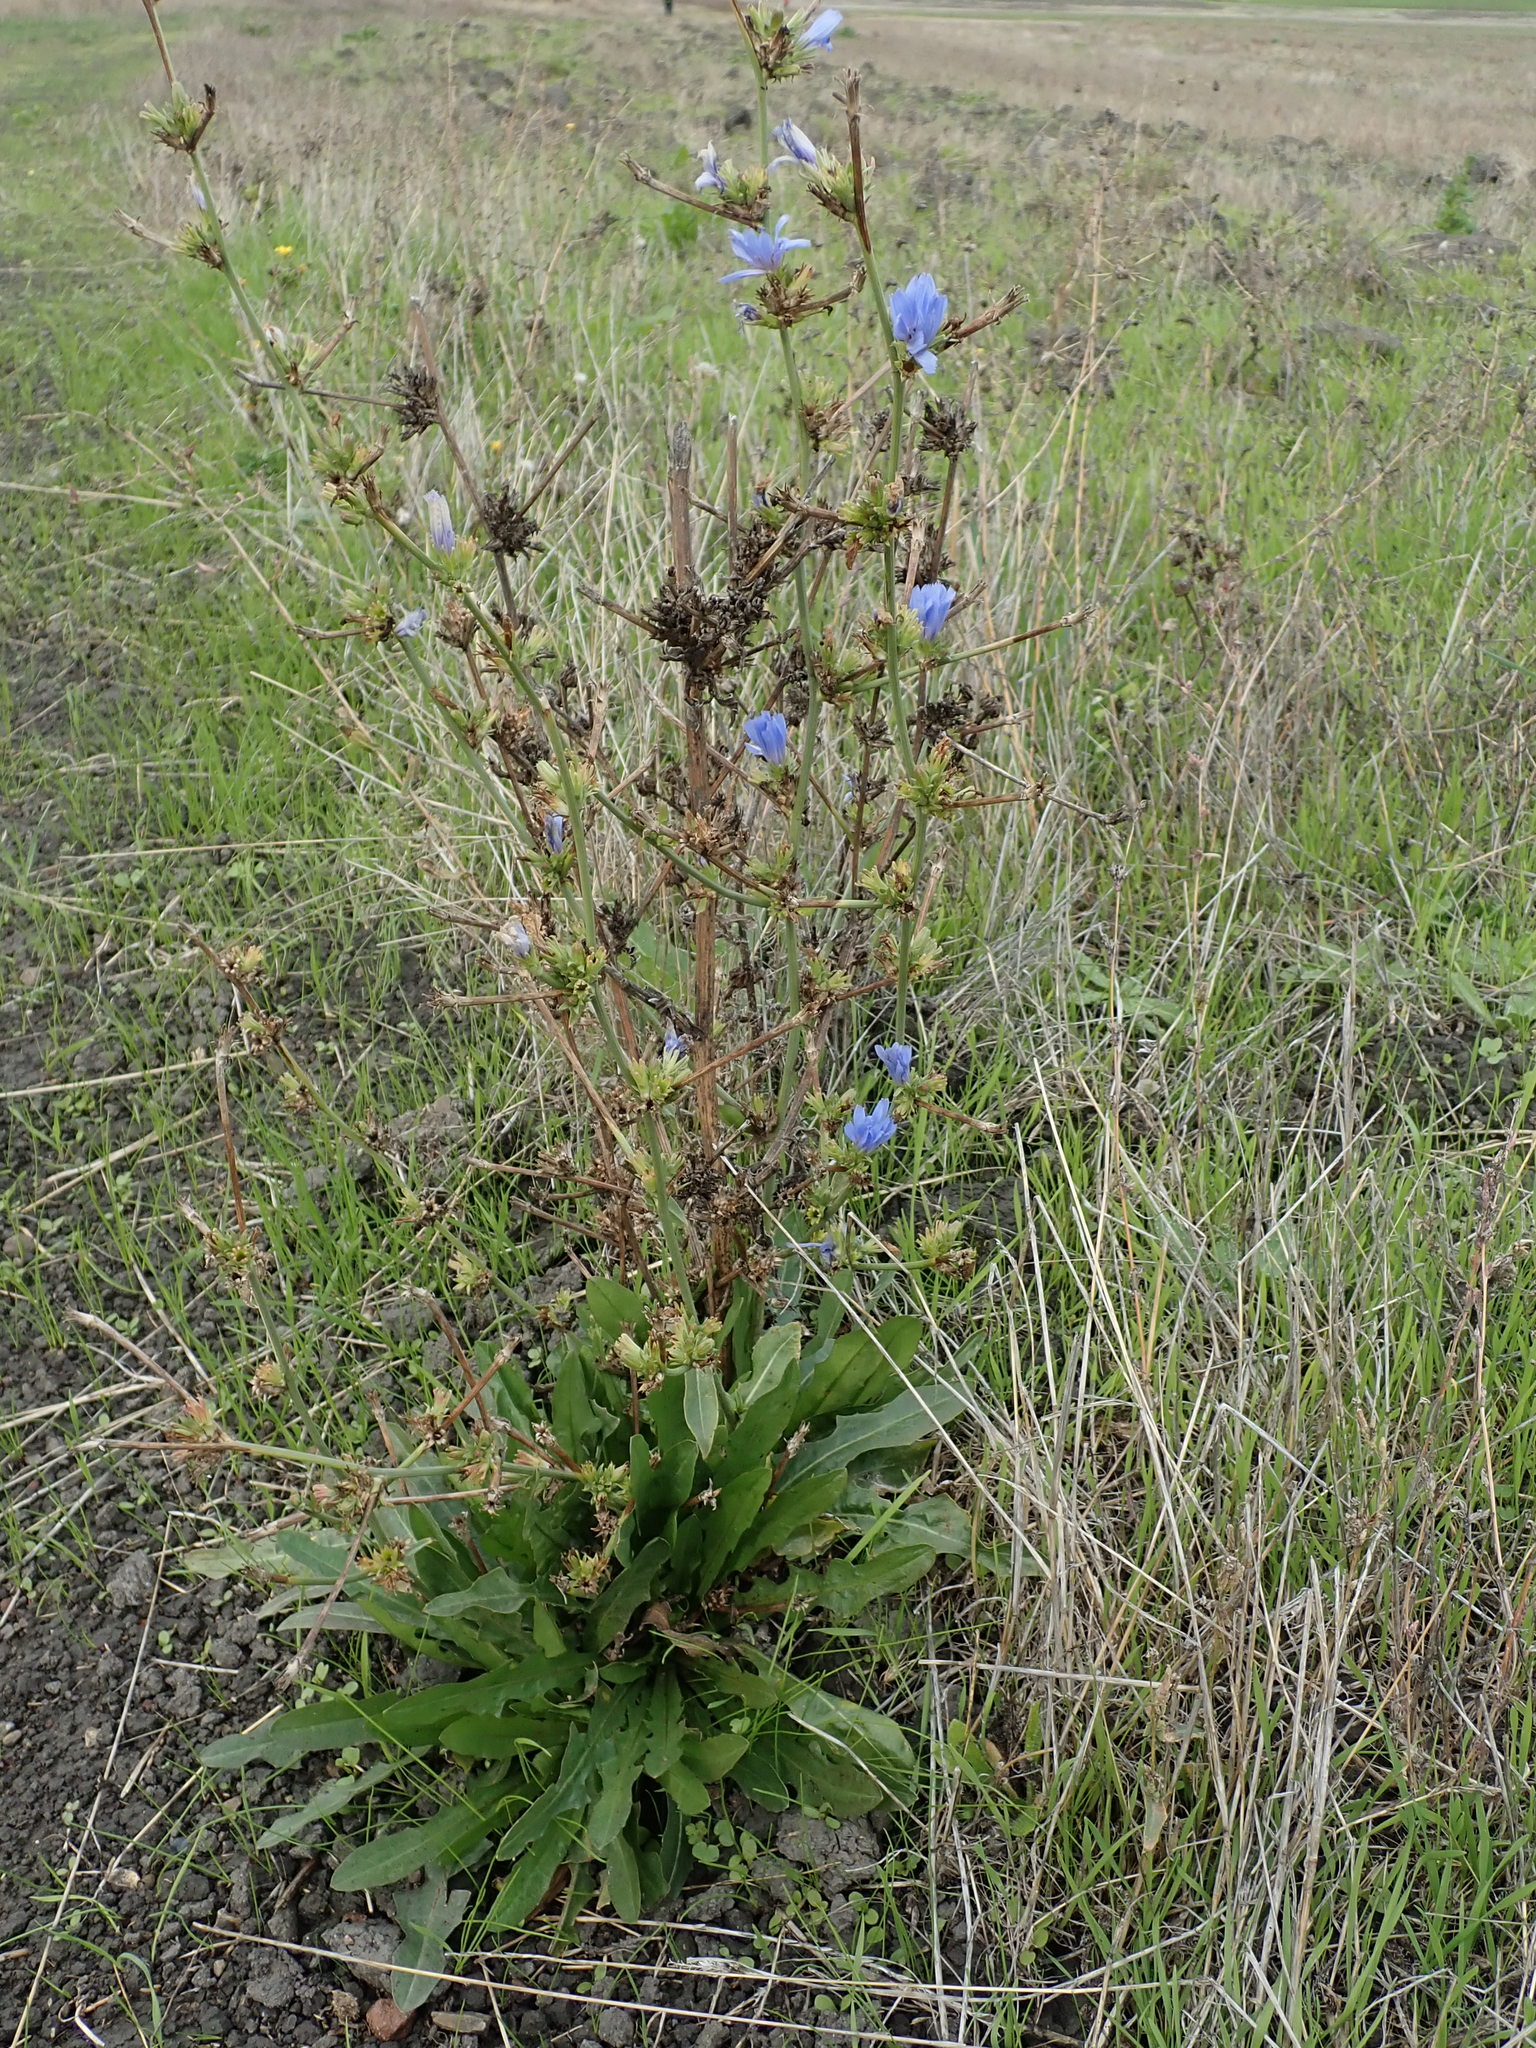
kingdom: Plantae
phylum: Tracheophyta
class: Magnoliopsida
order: Asterales
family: Asteraceae
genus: Cichorium
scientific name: Cichorium intybus
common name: Chicory
